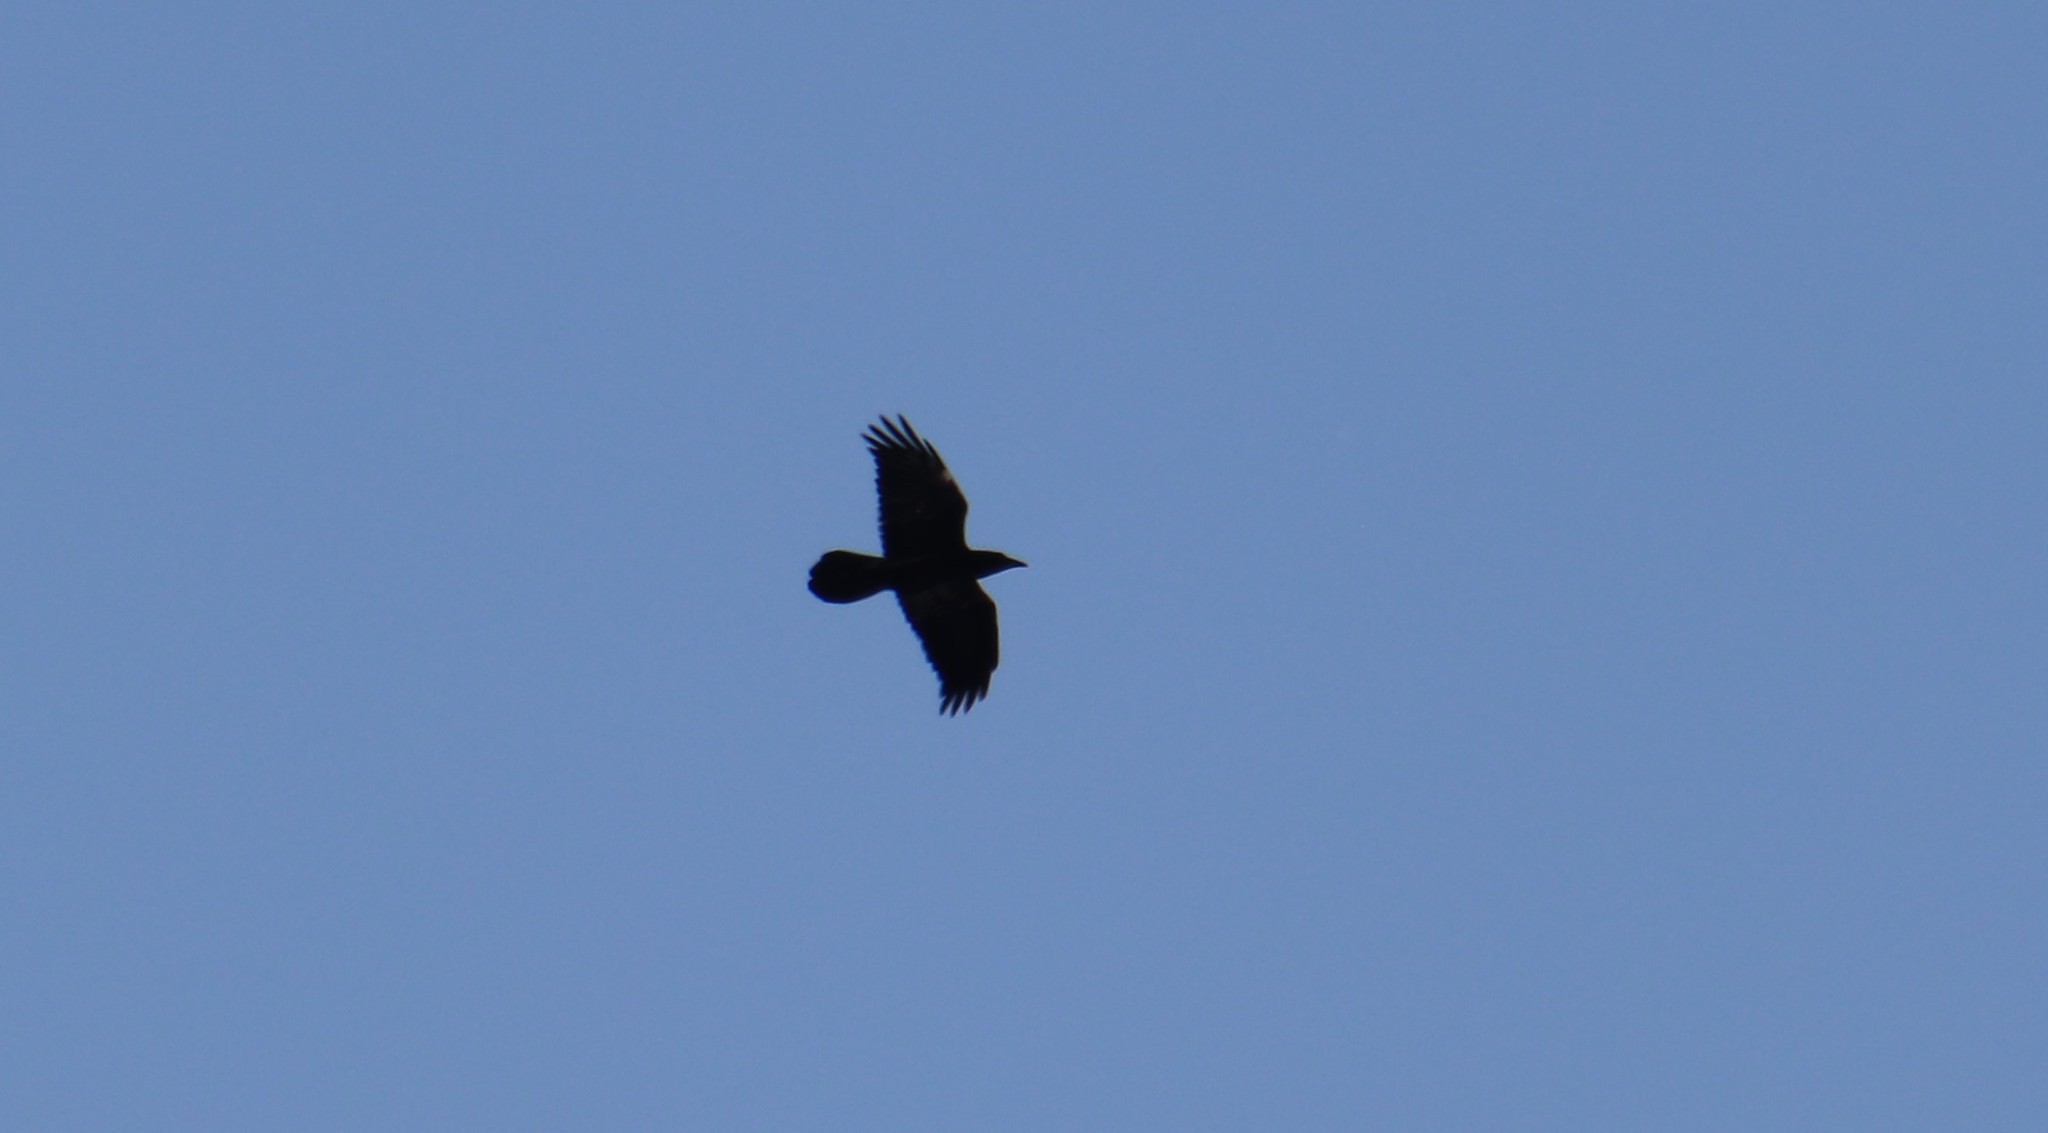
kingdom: Animalia
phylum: Chordata
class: Aves
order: Passeriformes
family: Corvidae
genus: Corvus
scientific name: Corvus corax
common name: Common raven
